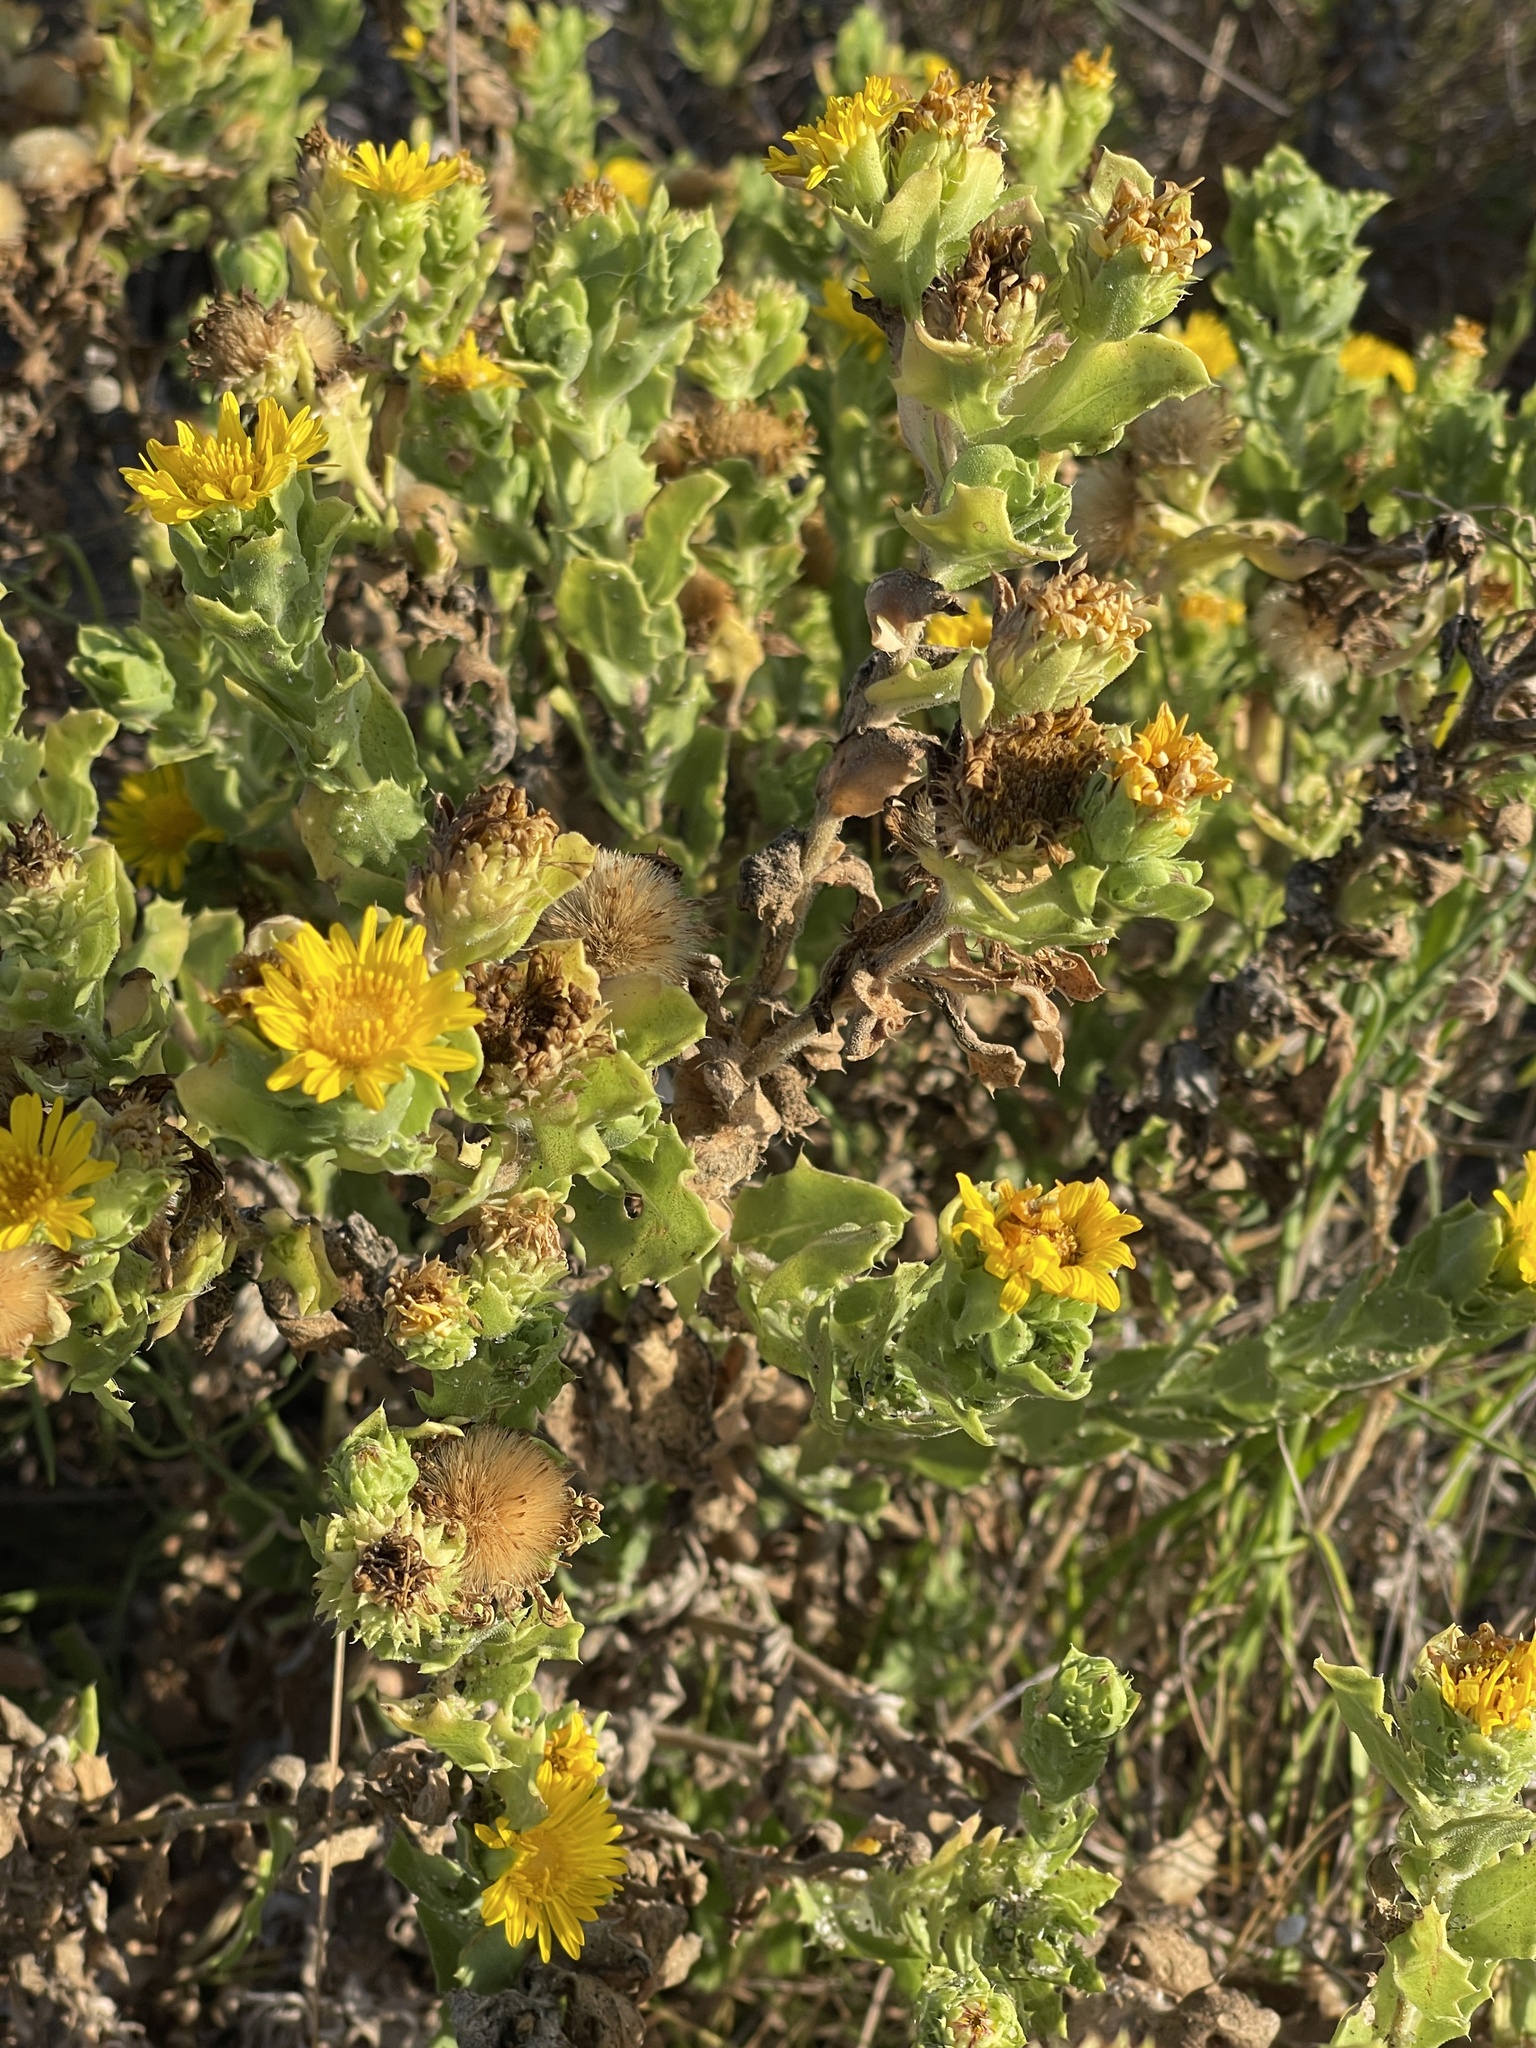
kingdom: Plantae
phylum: Tracheophyta
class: Magnoliopsida
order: Asterales
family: Asteraceae
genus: Rayjacksonia
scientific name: Rayjacksonia phyllocephala
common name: Gulf coast camphor daisy
